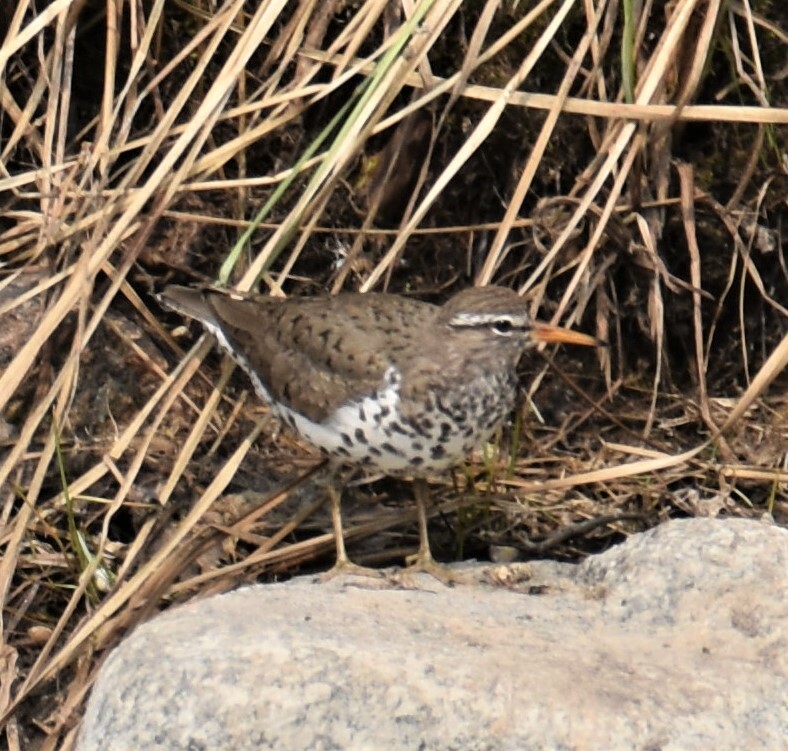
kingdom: Animalia
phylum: Chordata
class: Aves
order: Charadriiformes
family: Scolopacidae
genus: Actitis
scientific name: Actitis macularius
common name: Spotted sandpiper
